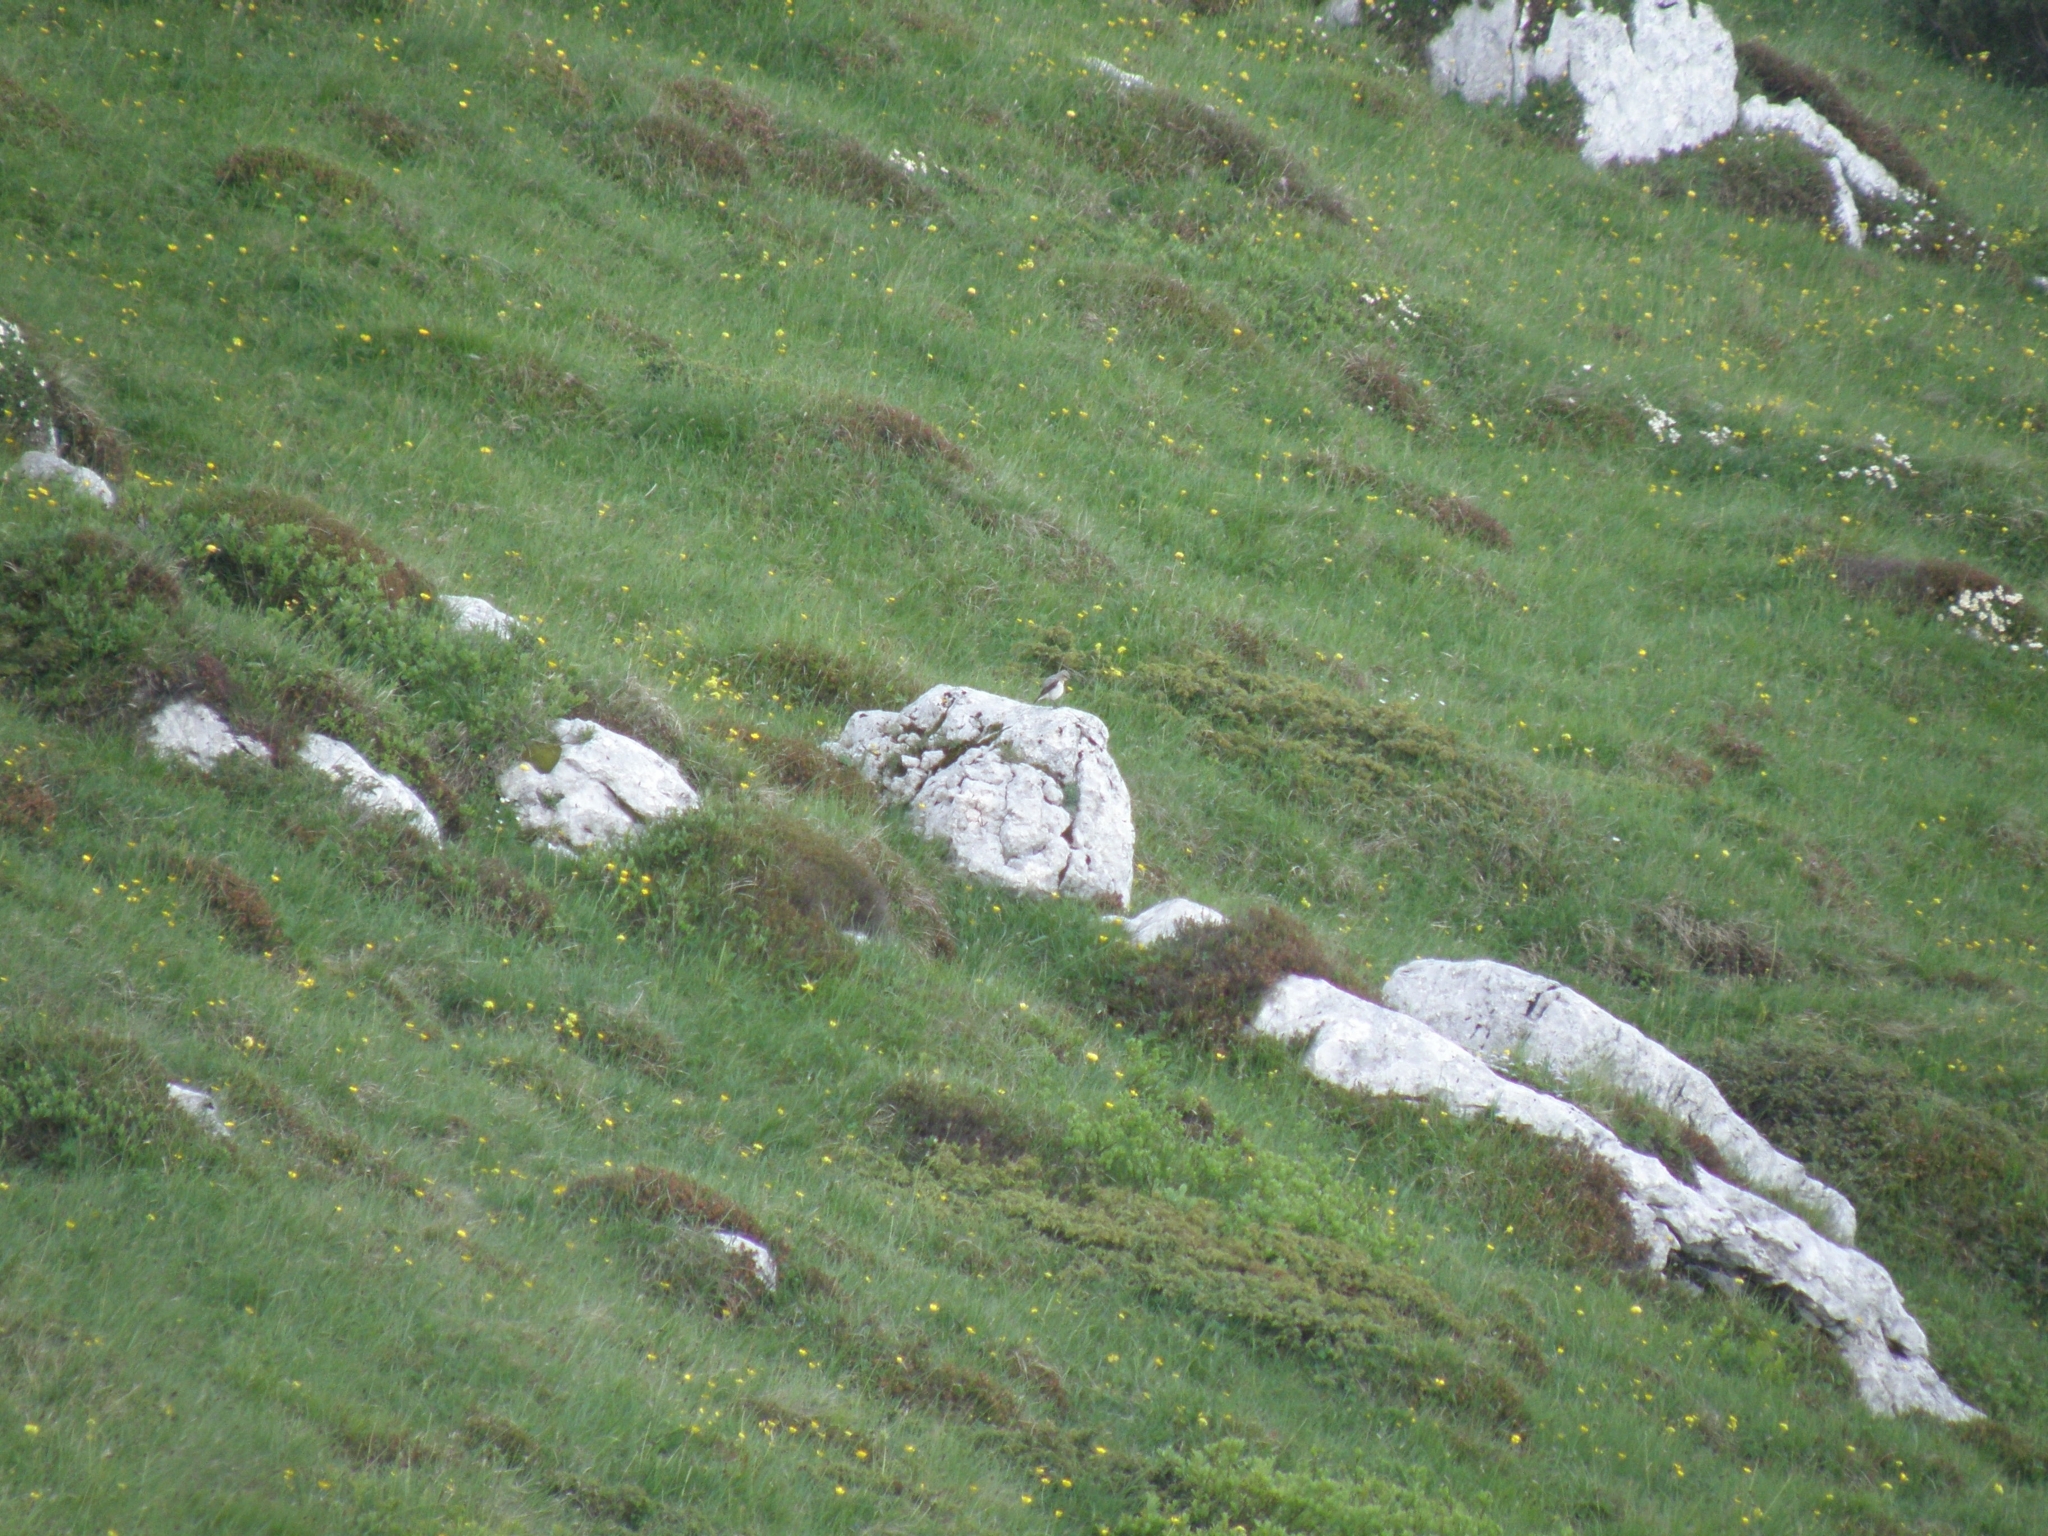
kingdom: Animalia
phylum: Chordata
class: Aves
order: Passeriformes
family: Muscicapidae
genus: Oenanthe
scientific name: Oenanthe oenanthe
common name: Northern wheatear
